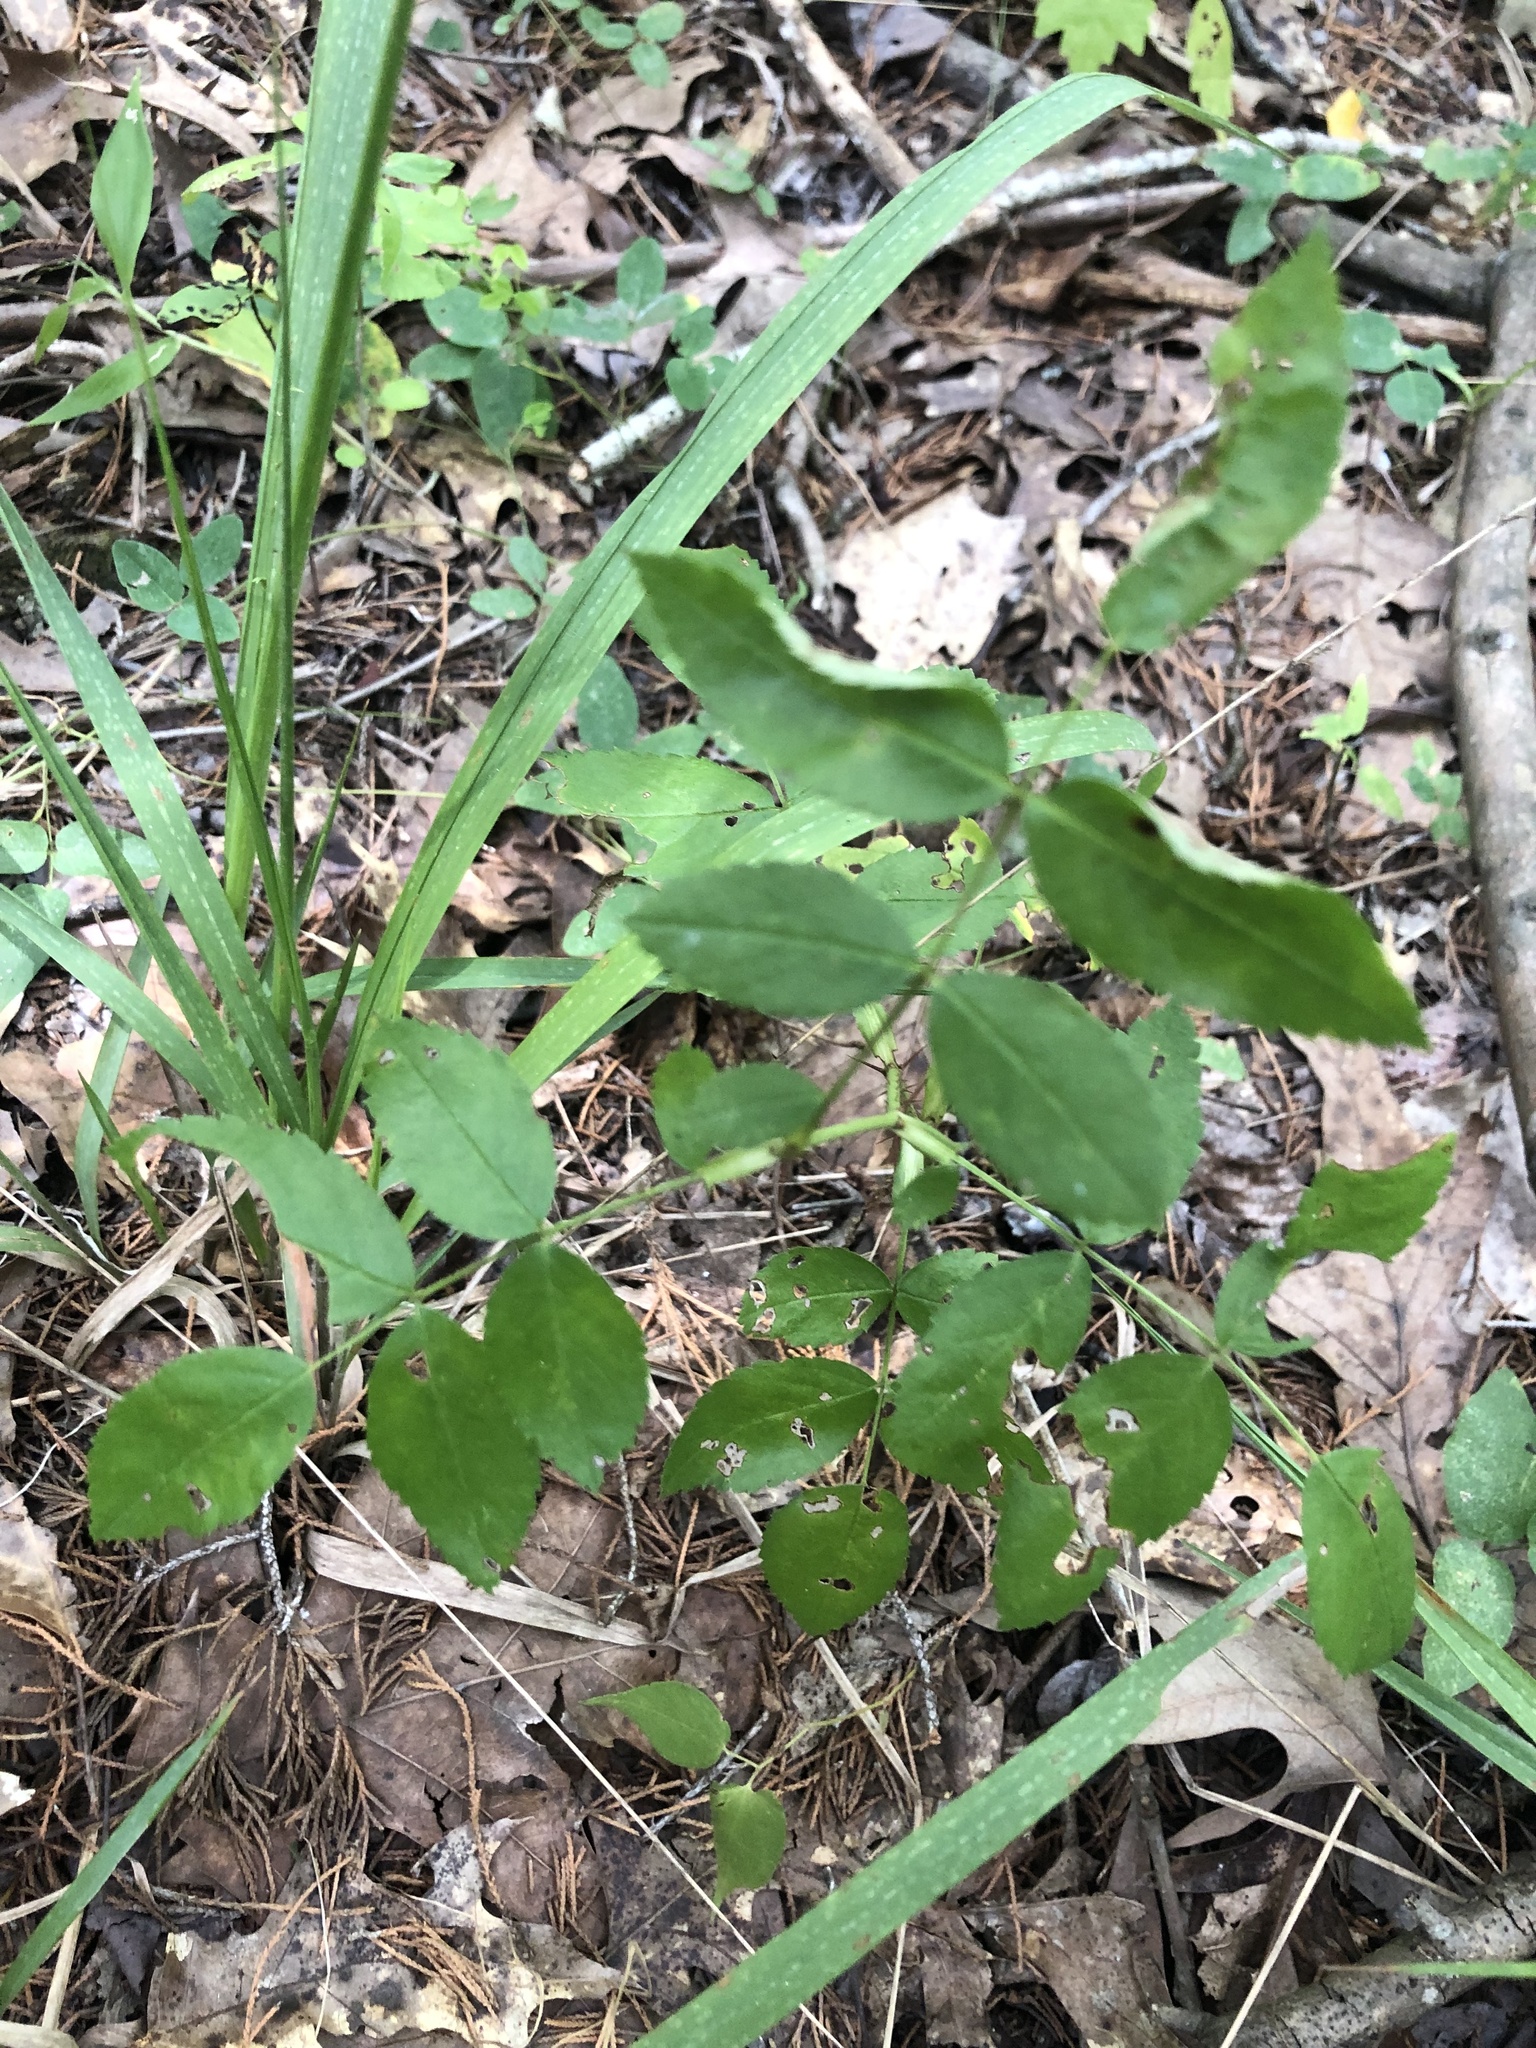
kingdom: Plantae
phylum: Tracheophyta
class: Magnoliopsida
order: Rosales
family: Rosaceae
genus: Rosa
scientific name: Rosa carolina
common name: Pasture rose
